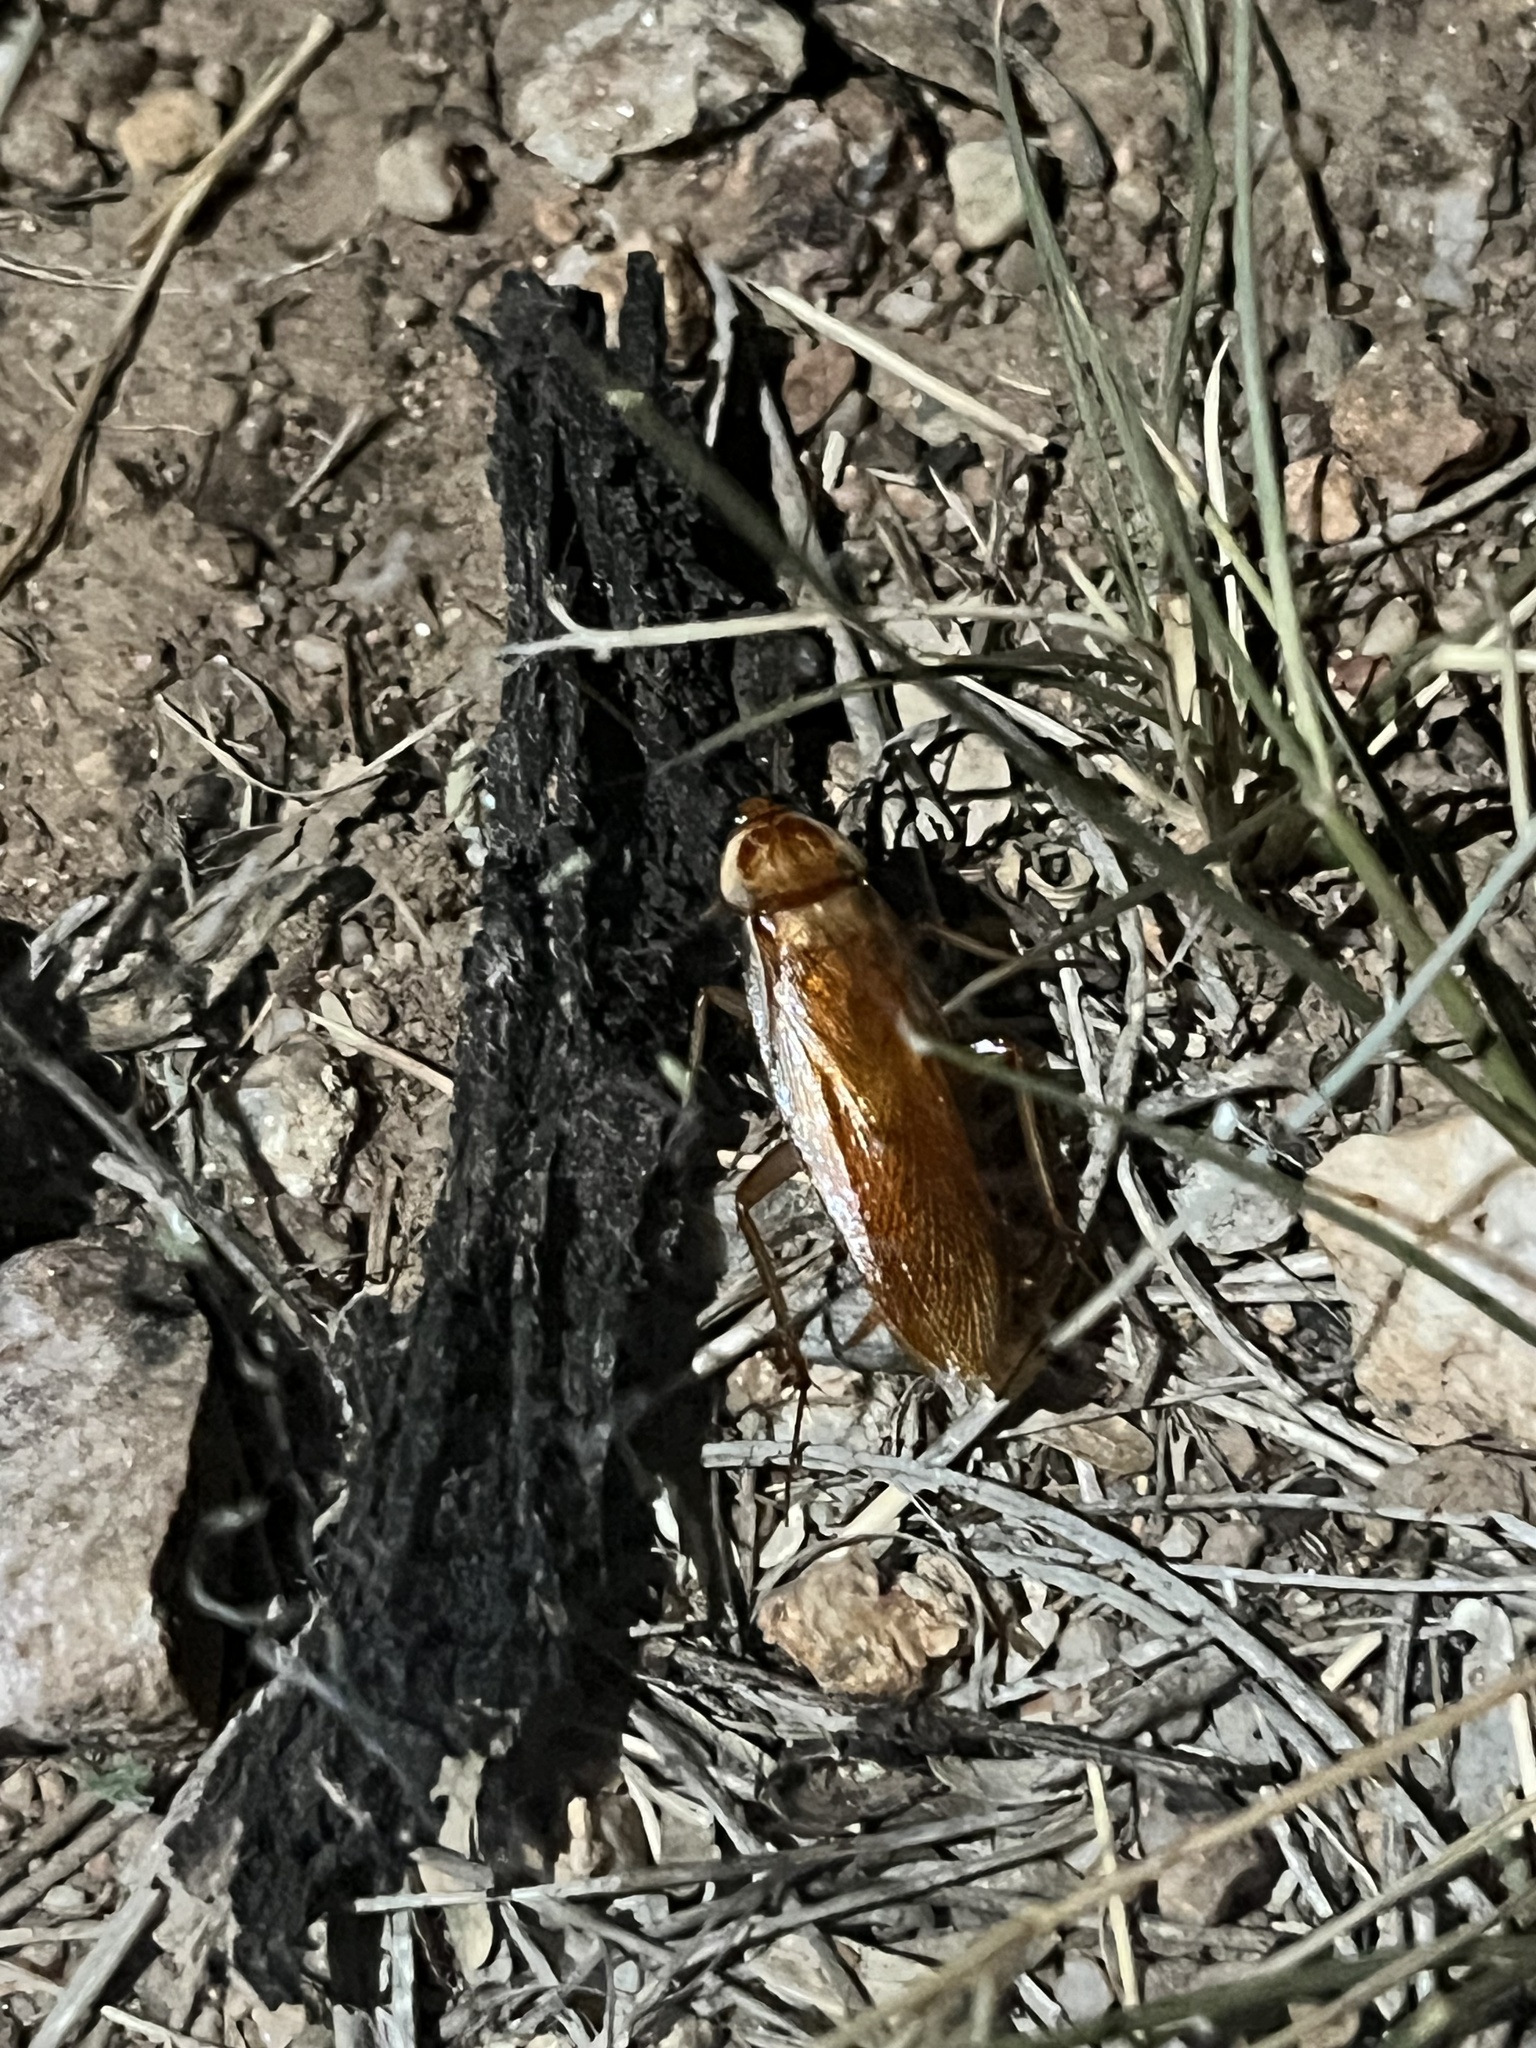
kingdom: Animalia
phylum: Arthropoda
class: Insecta
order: Blattodea
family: Blattidae
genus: Periplaneta
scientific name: Periplaneta lateralis
